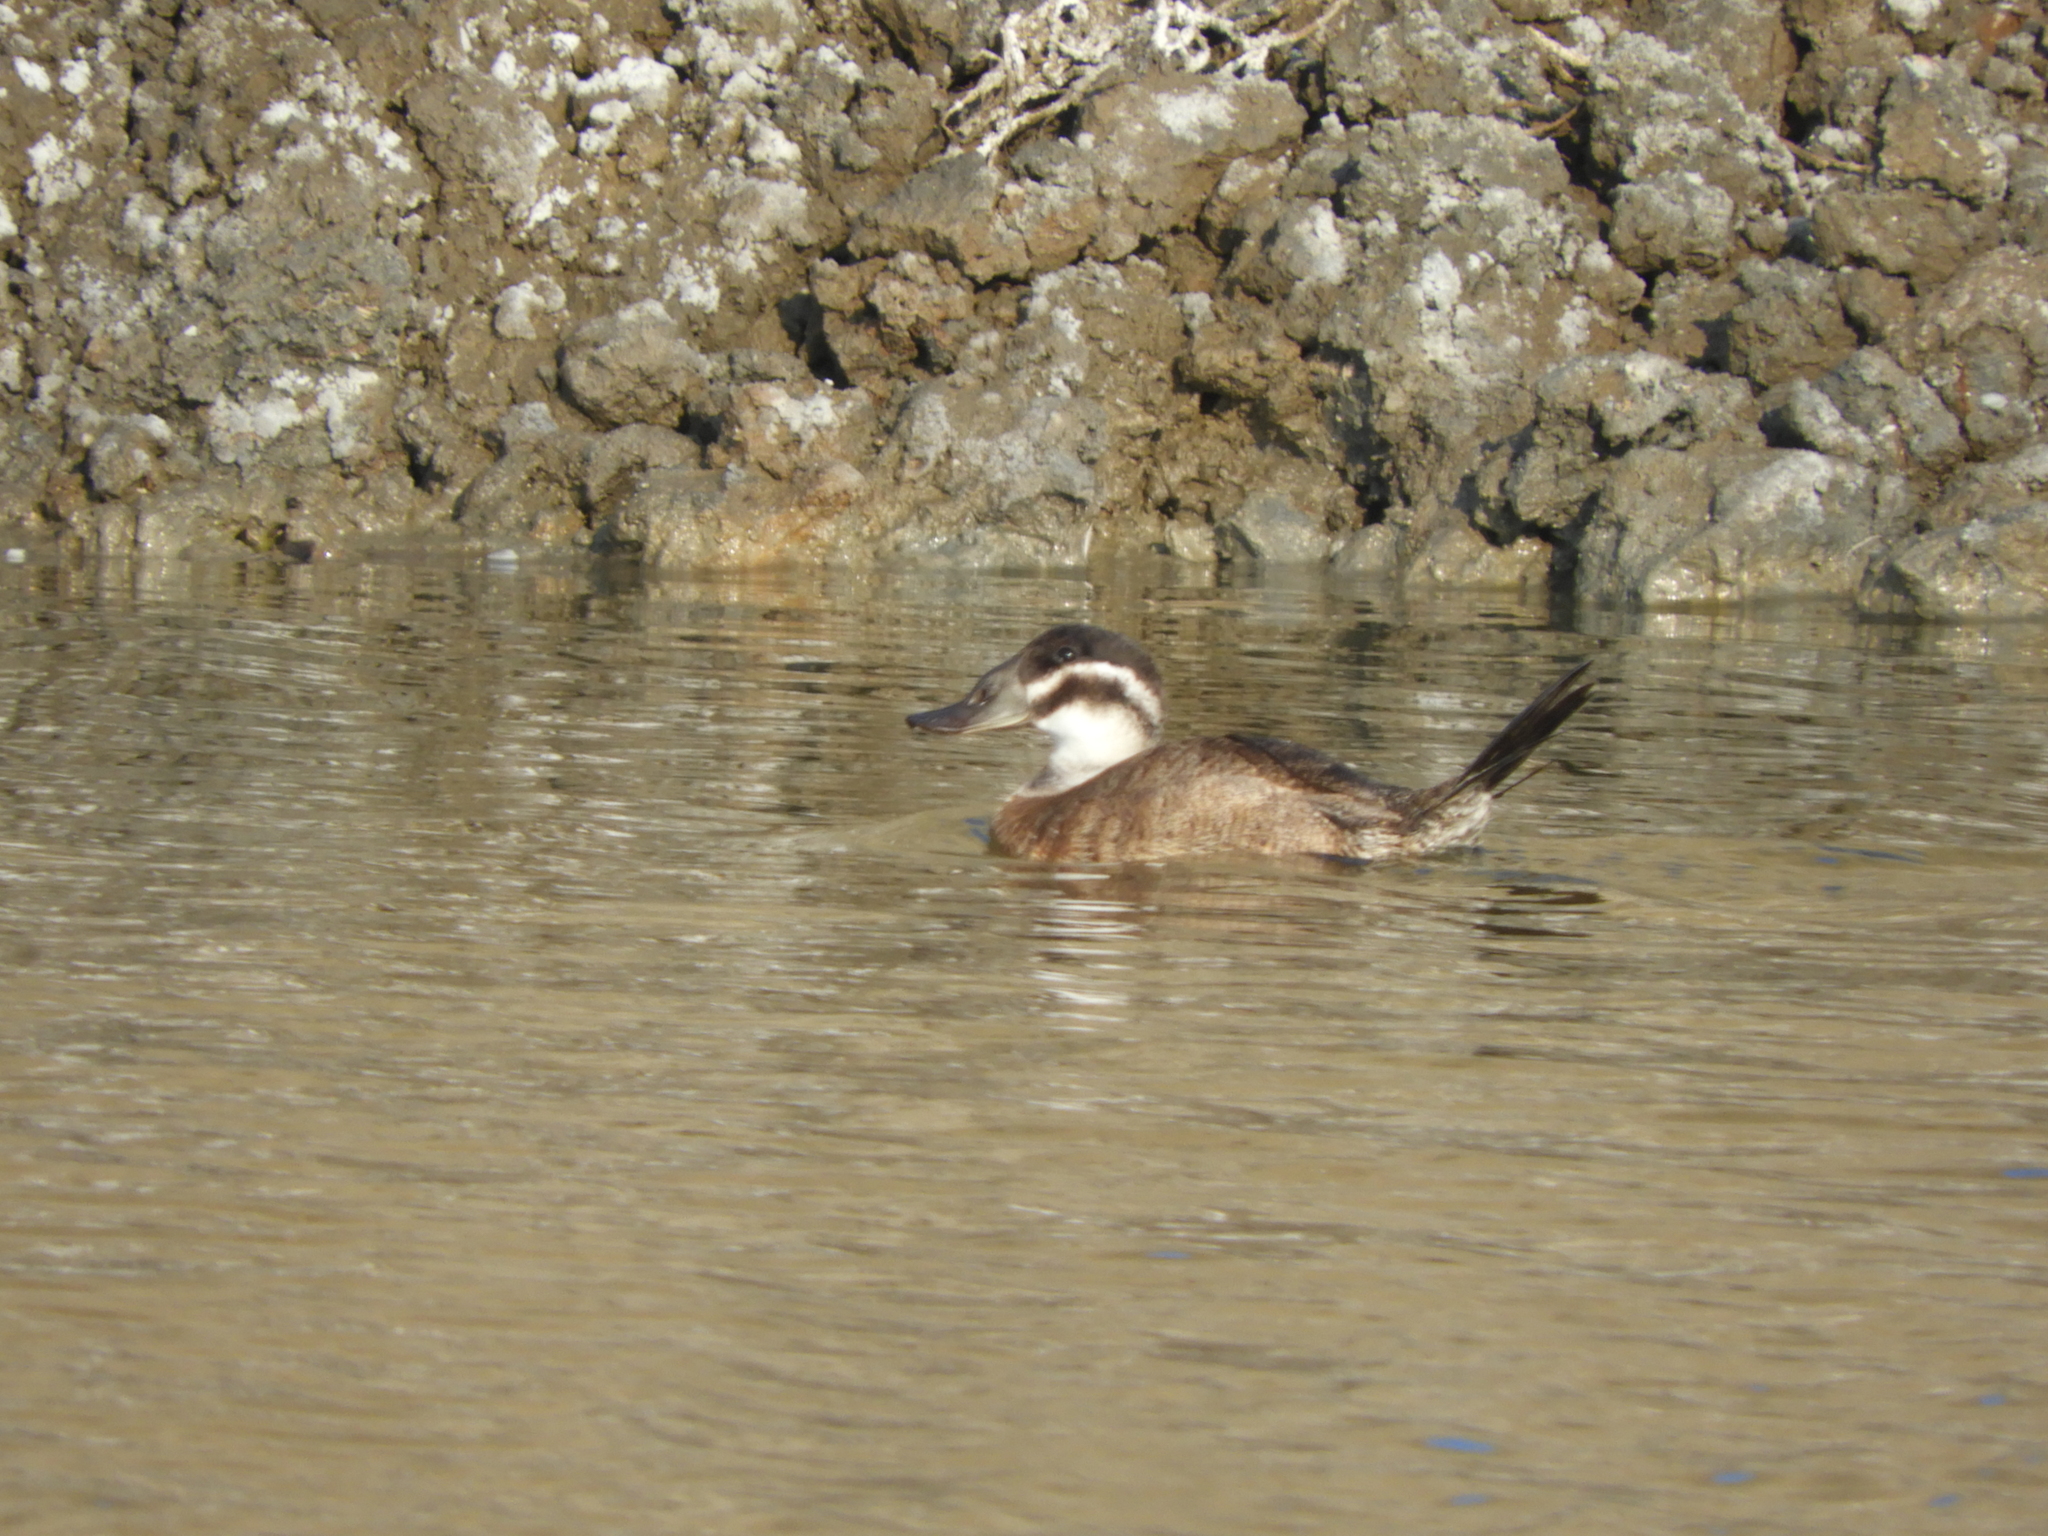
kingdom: Animalia
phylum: Chordata
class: Aves
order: Anseriformes
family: Anatidae
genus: Oxyura
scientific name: Oxyura leucocephala
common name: White-headed duck
